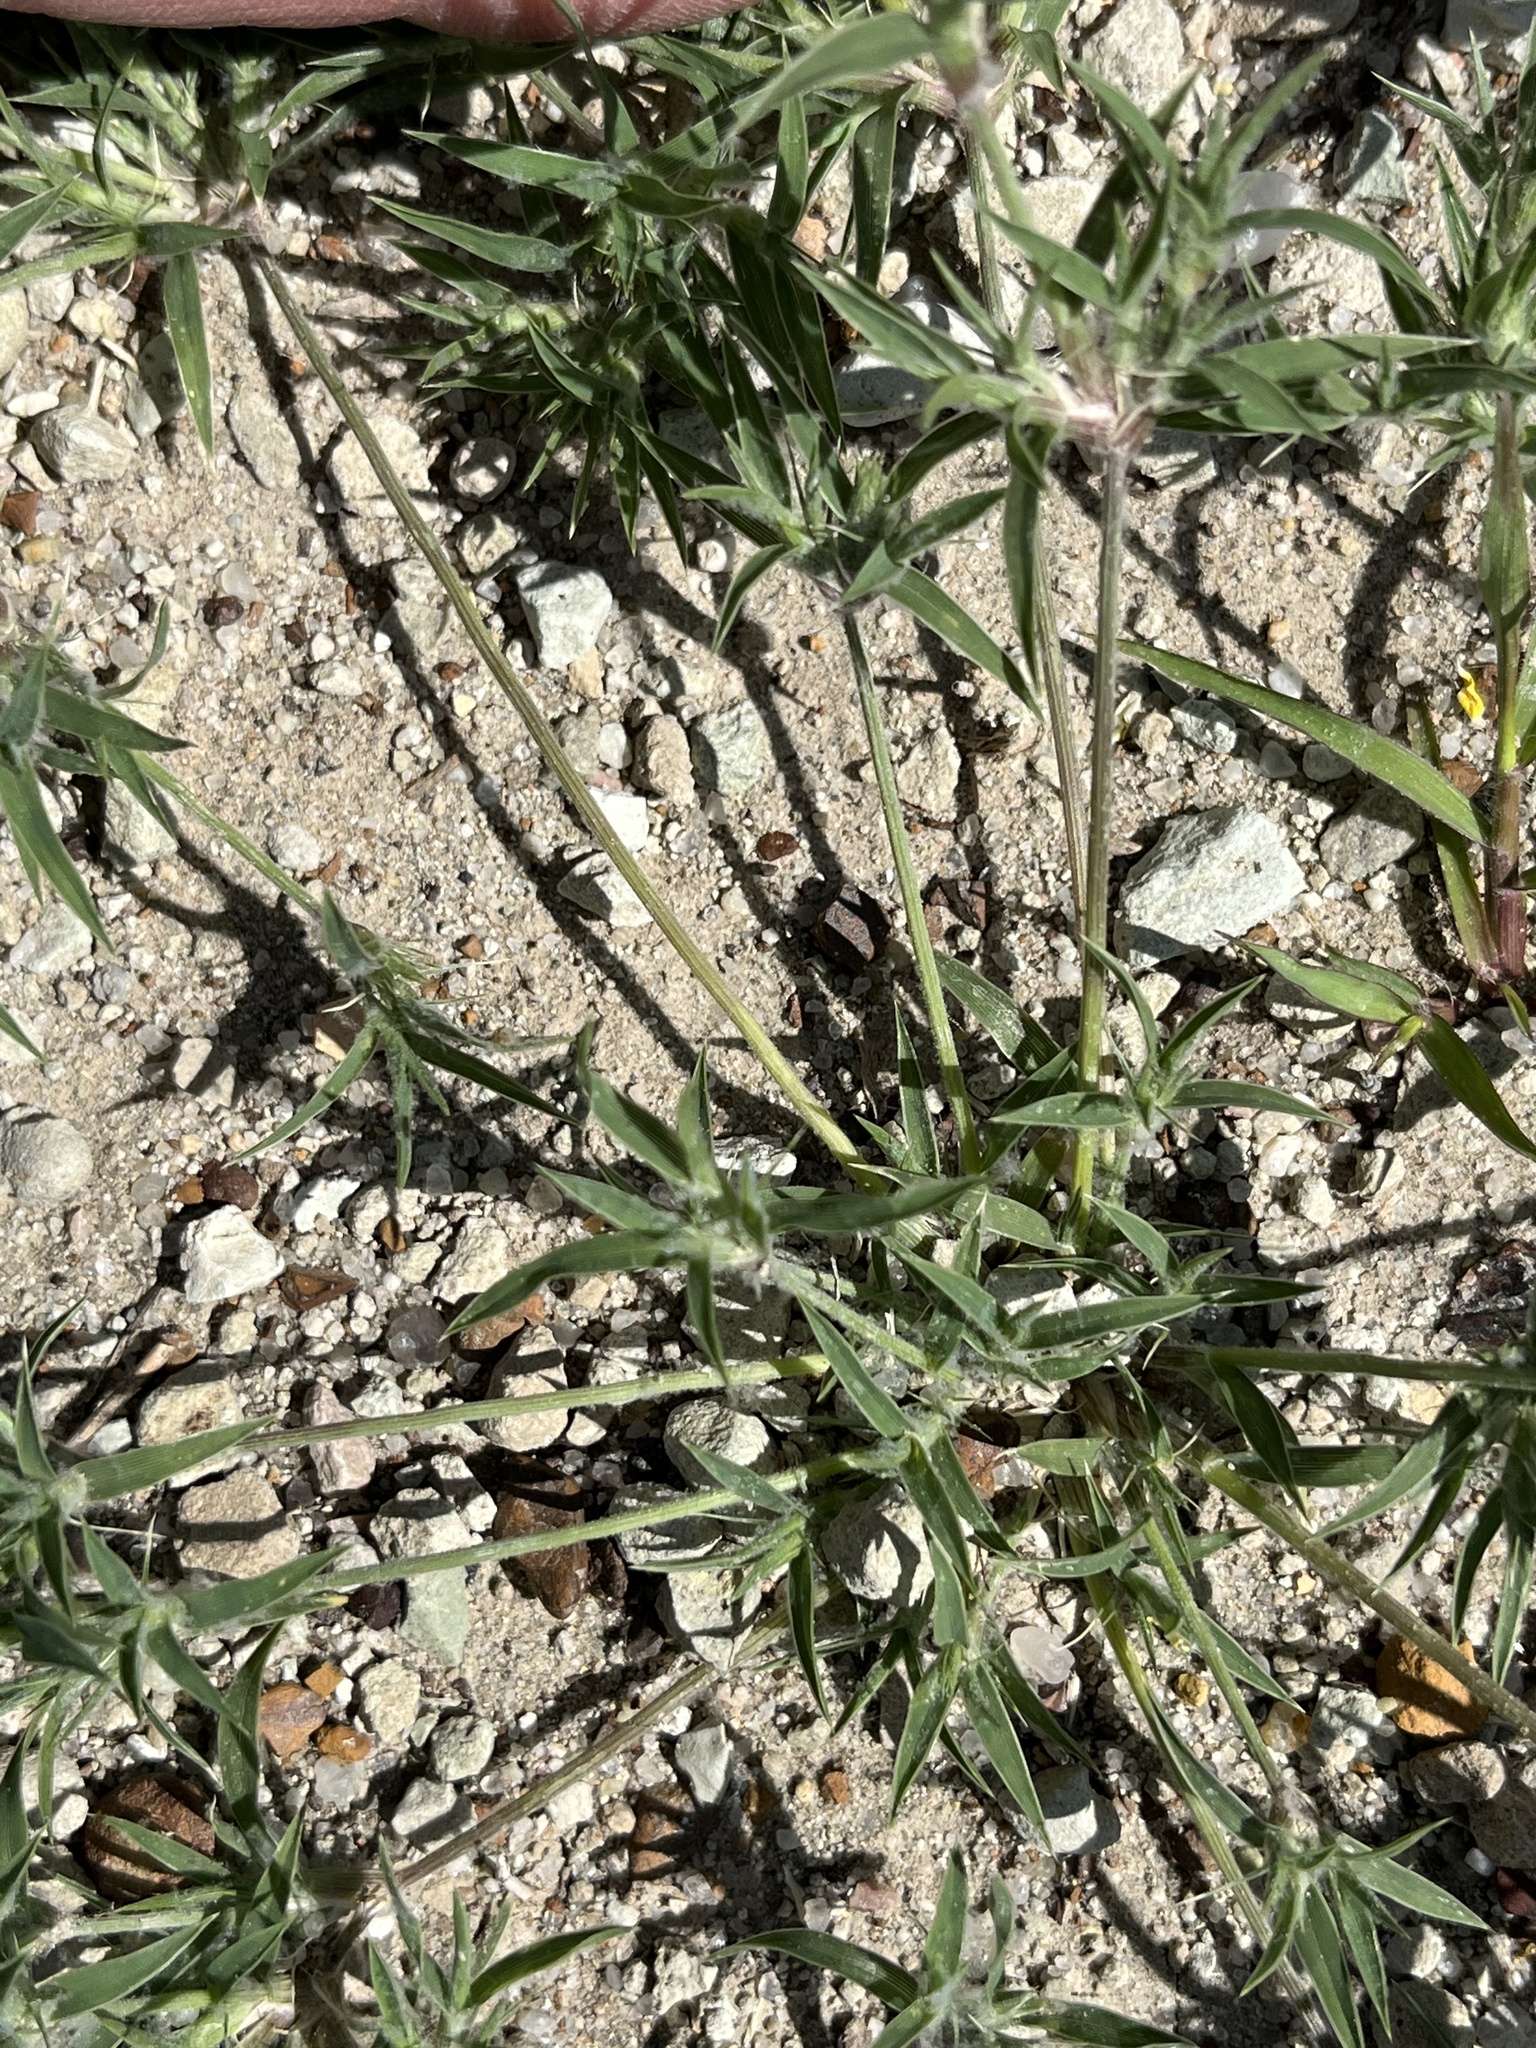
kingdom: Plantae
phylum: Tracheophyta
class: Liliopsida
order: Poales
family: Poaceae
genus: Munroa
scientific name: Munroa squarrosa
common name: False buffalo grass
